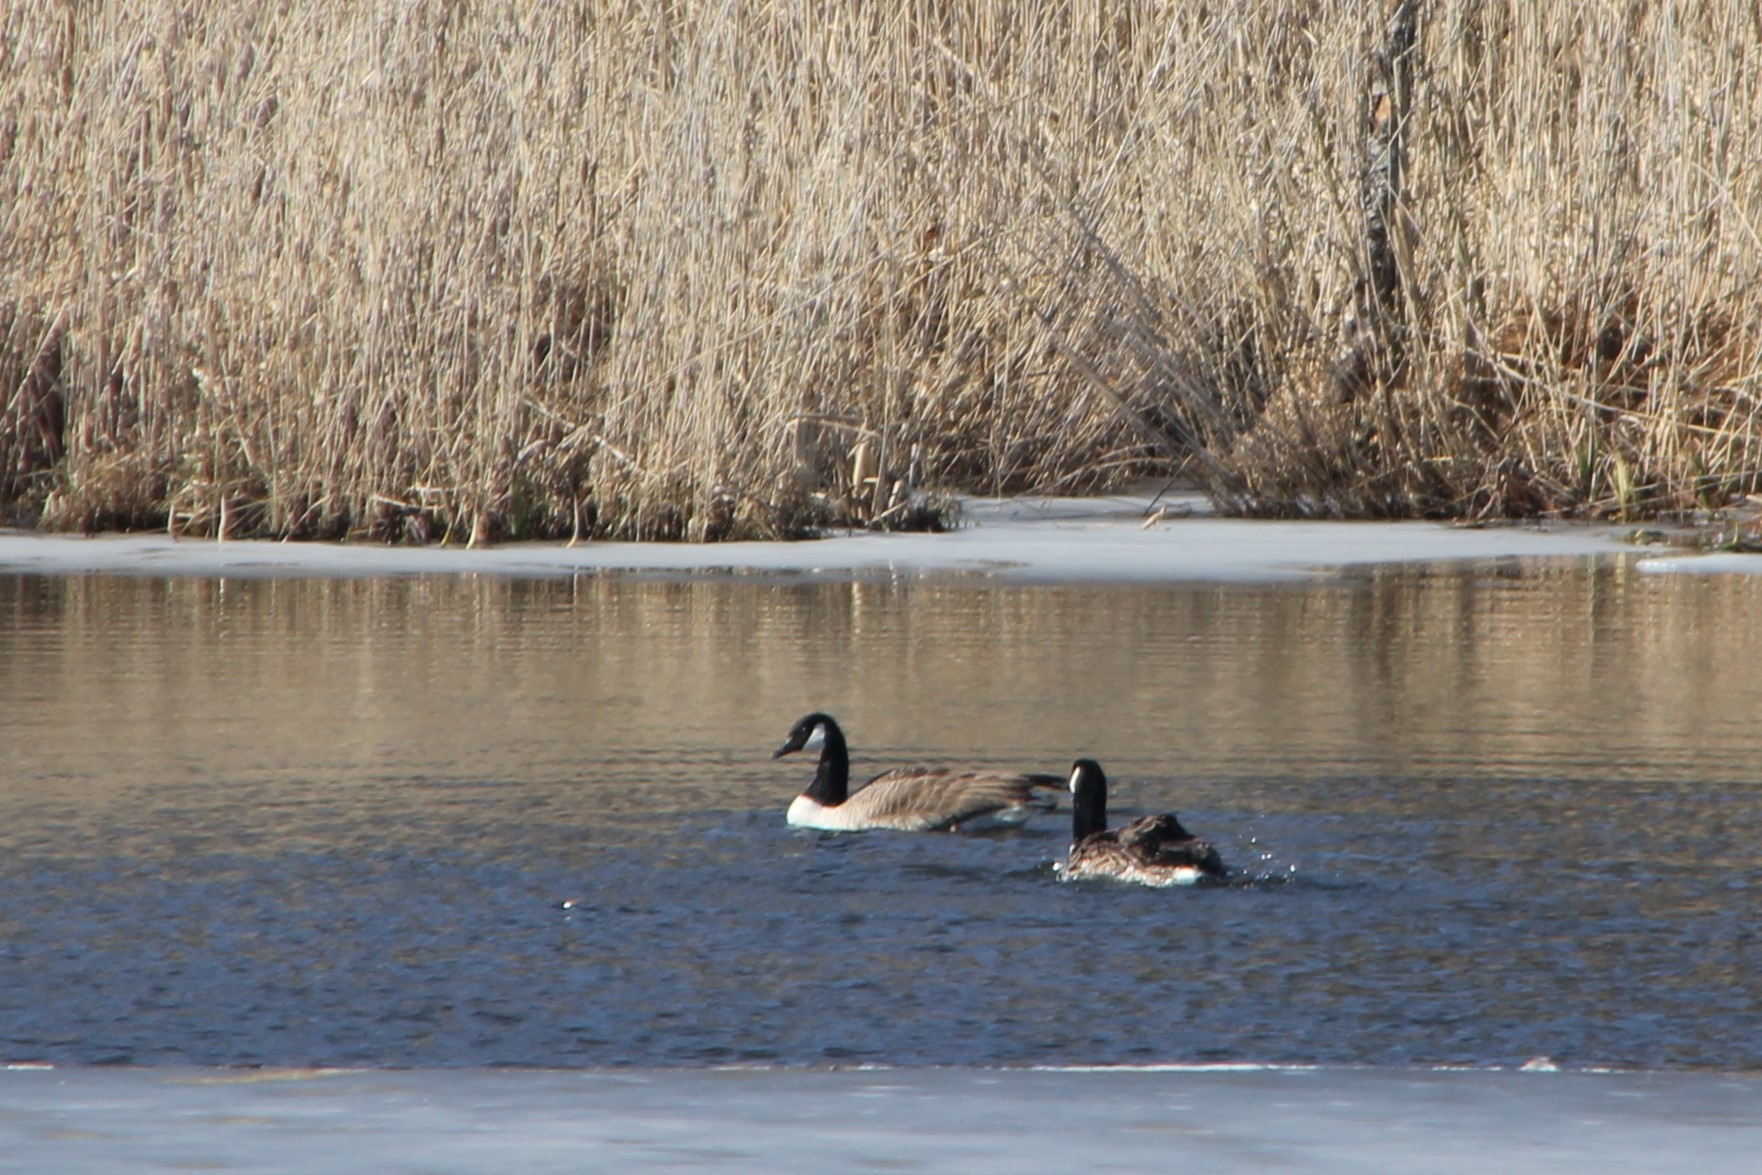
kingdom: Animalia
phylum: Chordata
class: Aves
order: Anseriformes
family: Anatidae
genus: Branta
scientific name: Branta canadensis
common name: Canada goose
